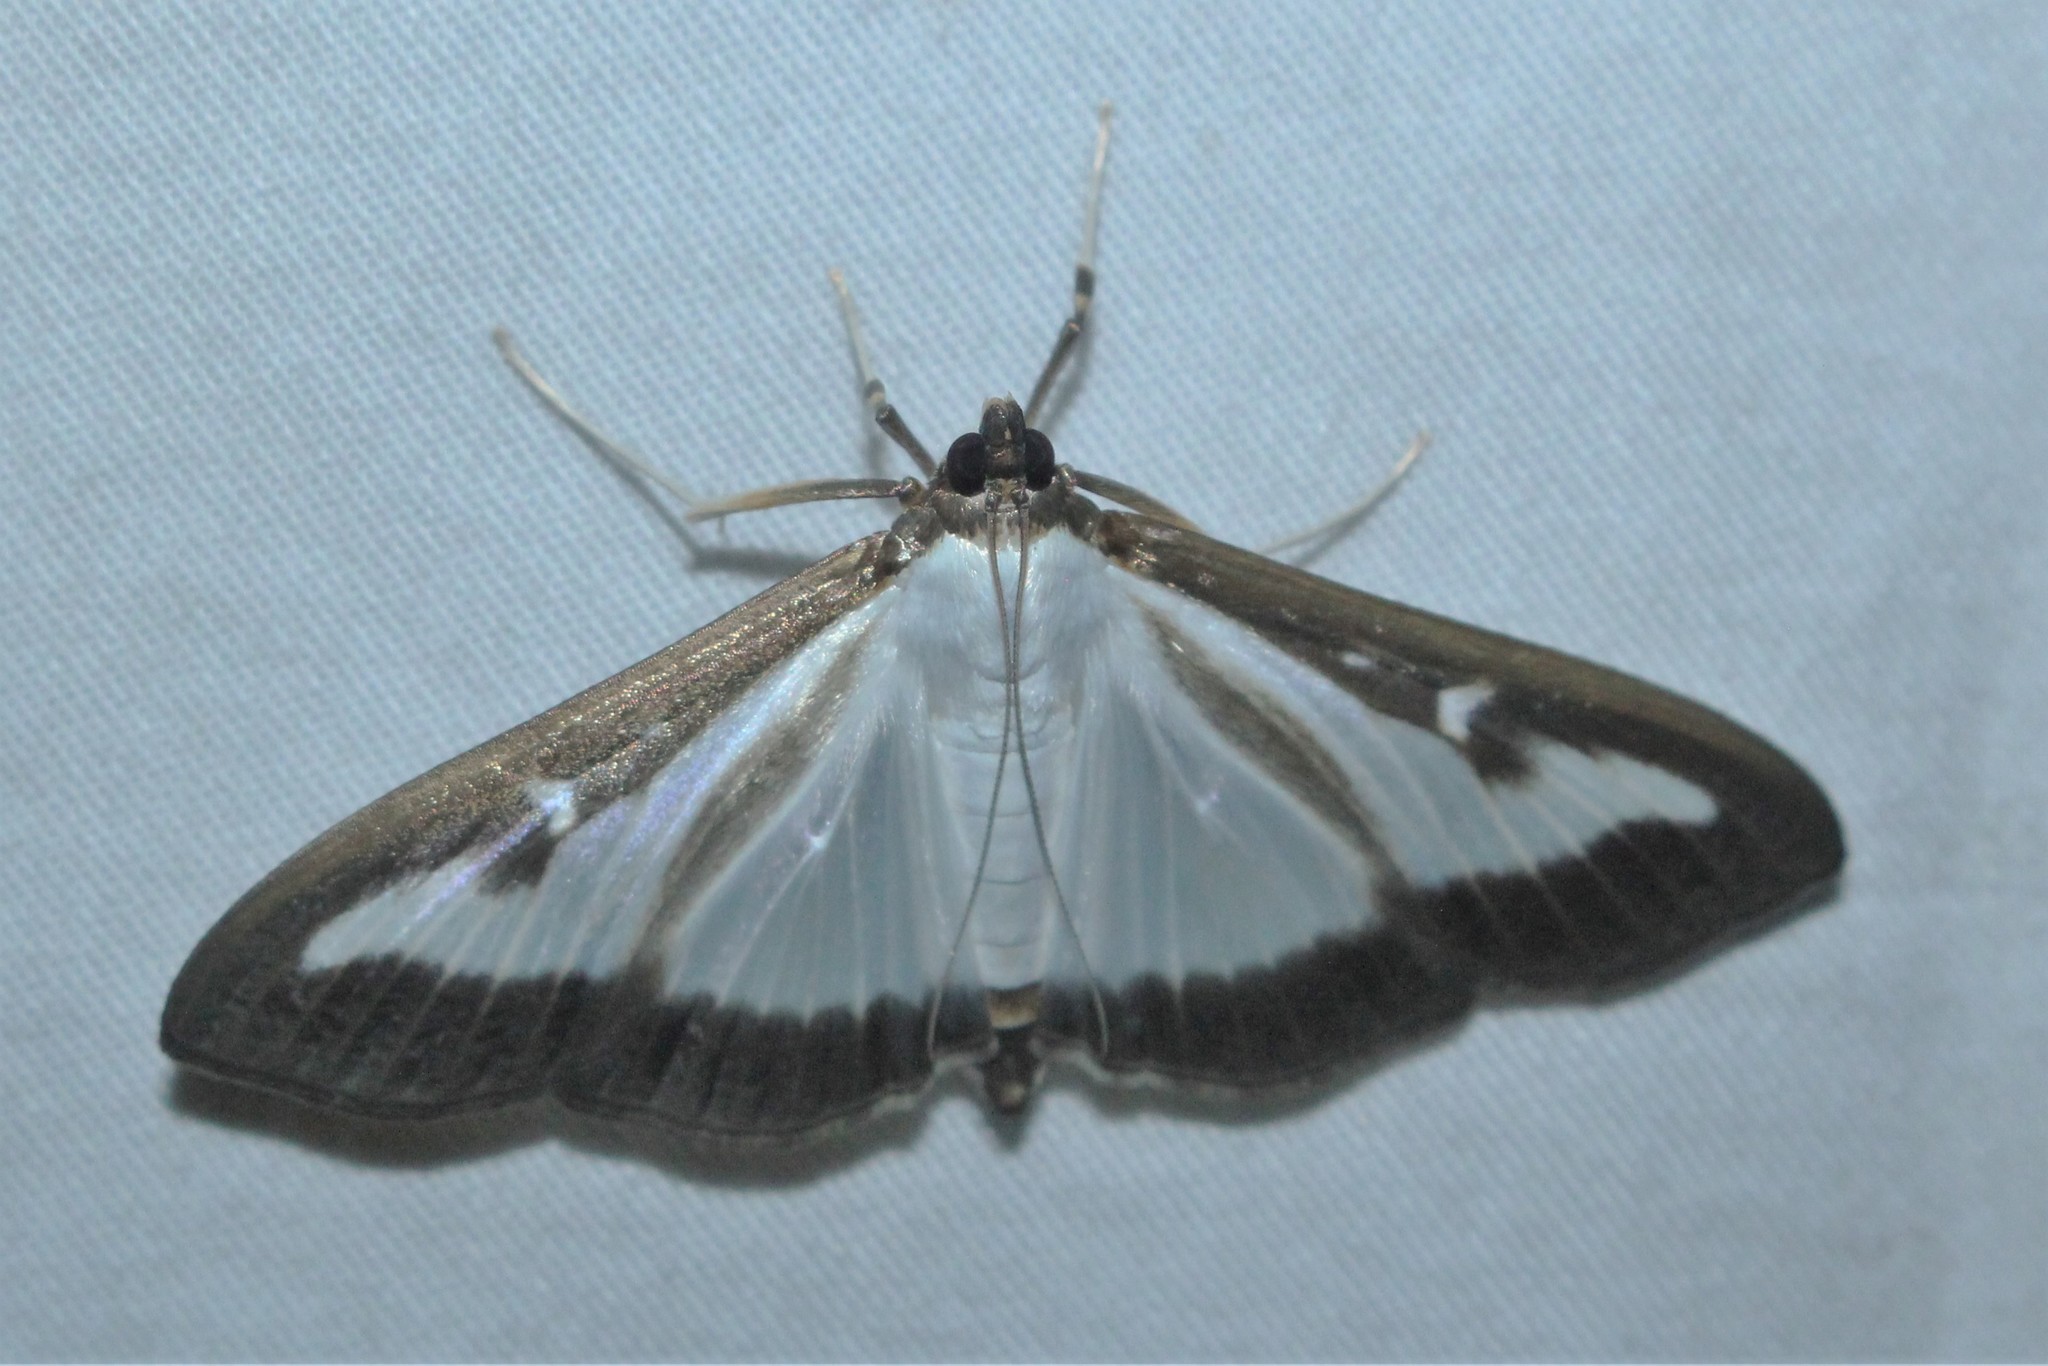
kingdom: Animalia
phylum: Arthropoda
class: Insecta
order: Lepidoptera
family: Crambidae
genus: Cydalima
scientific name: Cydalima perspectalis
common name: Box tree moth
